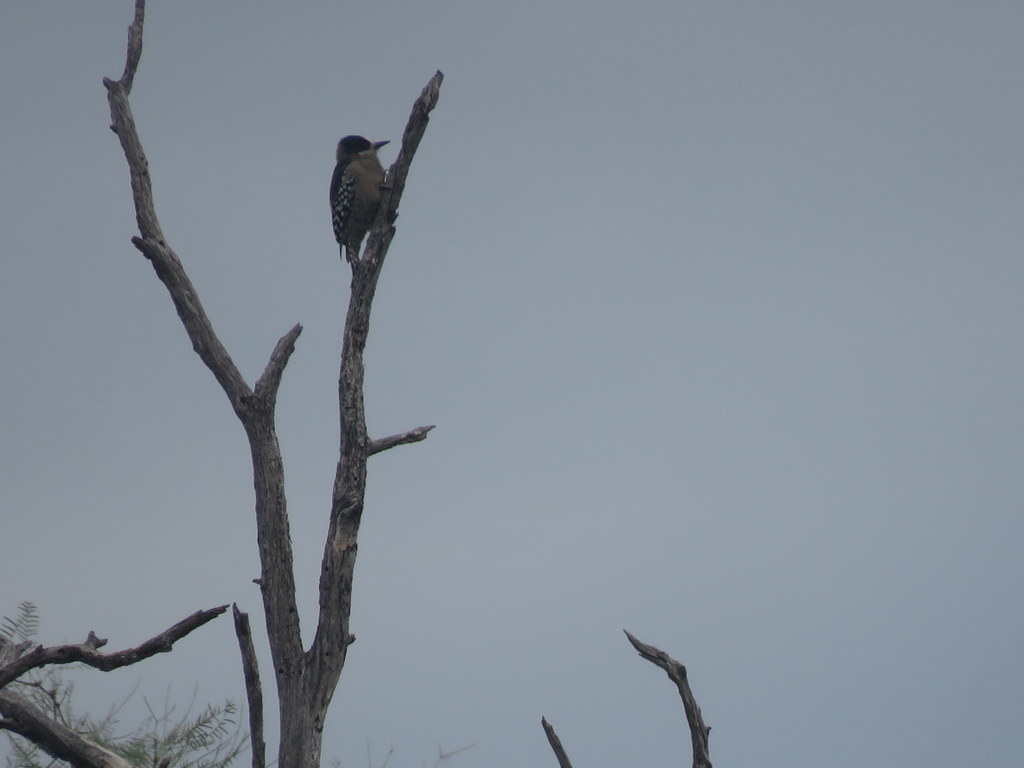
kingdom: Animalia
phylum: Chordata
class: Aves
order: Piciformes
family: Picidae
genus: Melanerpes
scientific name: Melanerpes cactorum
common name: White-fronted woodpecker
